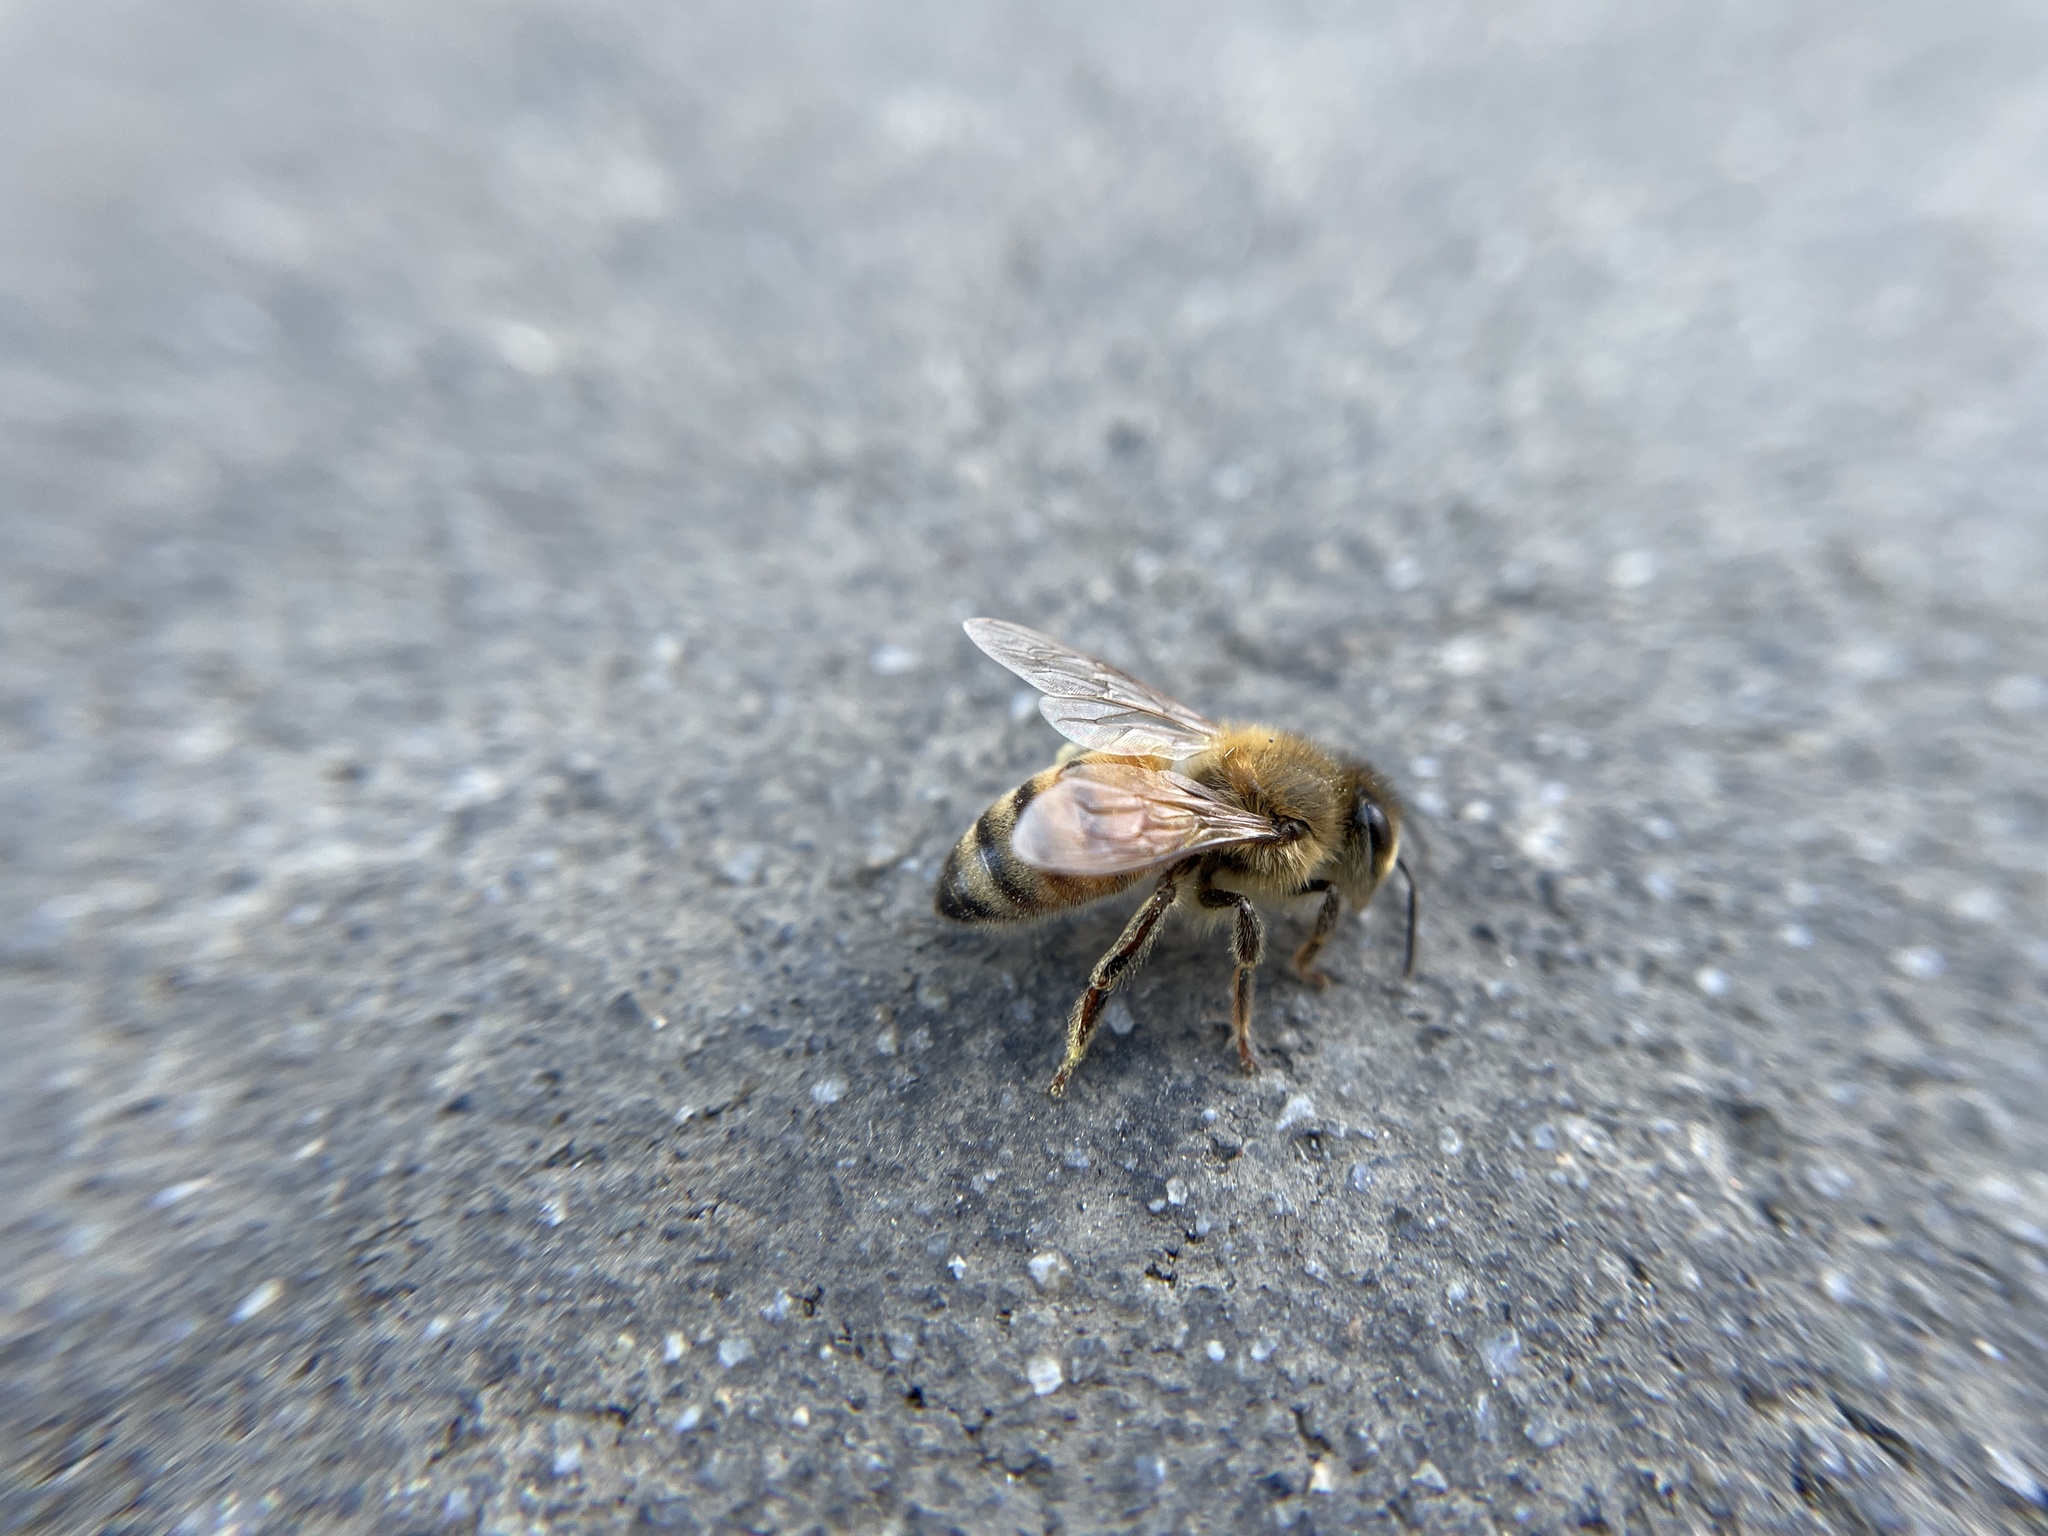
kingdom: Animalia
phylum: Arthropoda
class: Insecta
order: Hymenoptera
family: Apidae
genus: Apis
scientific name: Apis mellifera
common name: Honey bee
